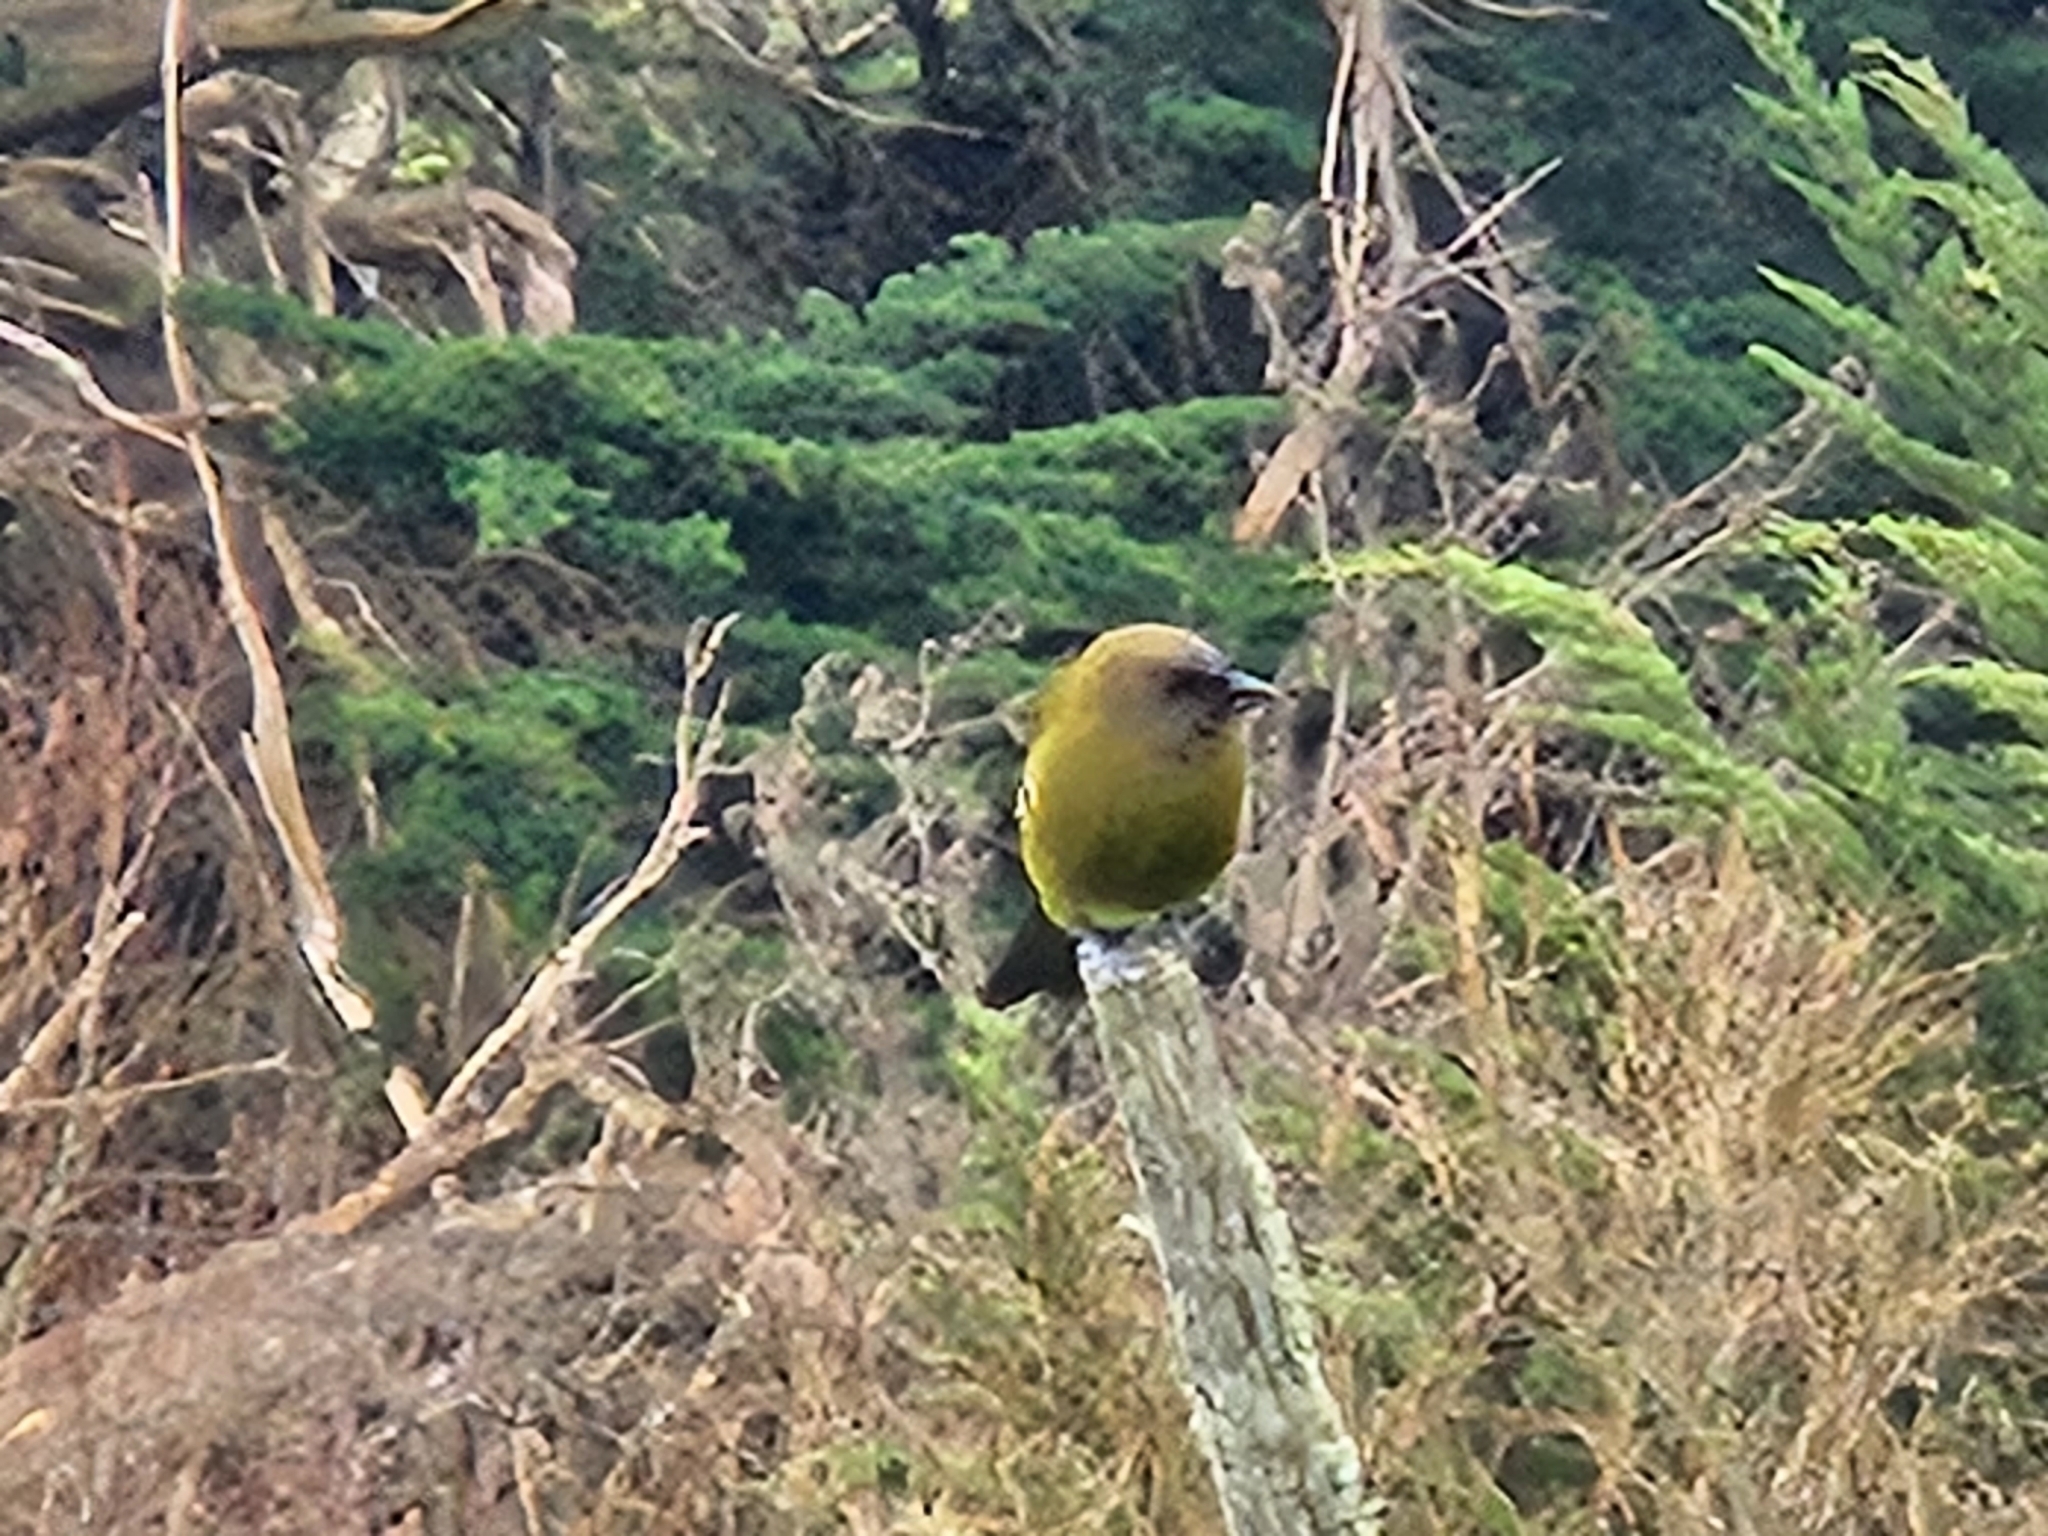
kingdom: Animalia
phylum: Chordata
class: Aves
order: Passeriformes
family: Meliphagidae
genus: Anthornis
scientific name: Anthornis melanura
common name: New zealand bellbird
